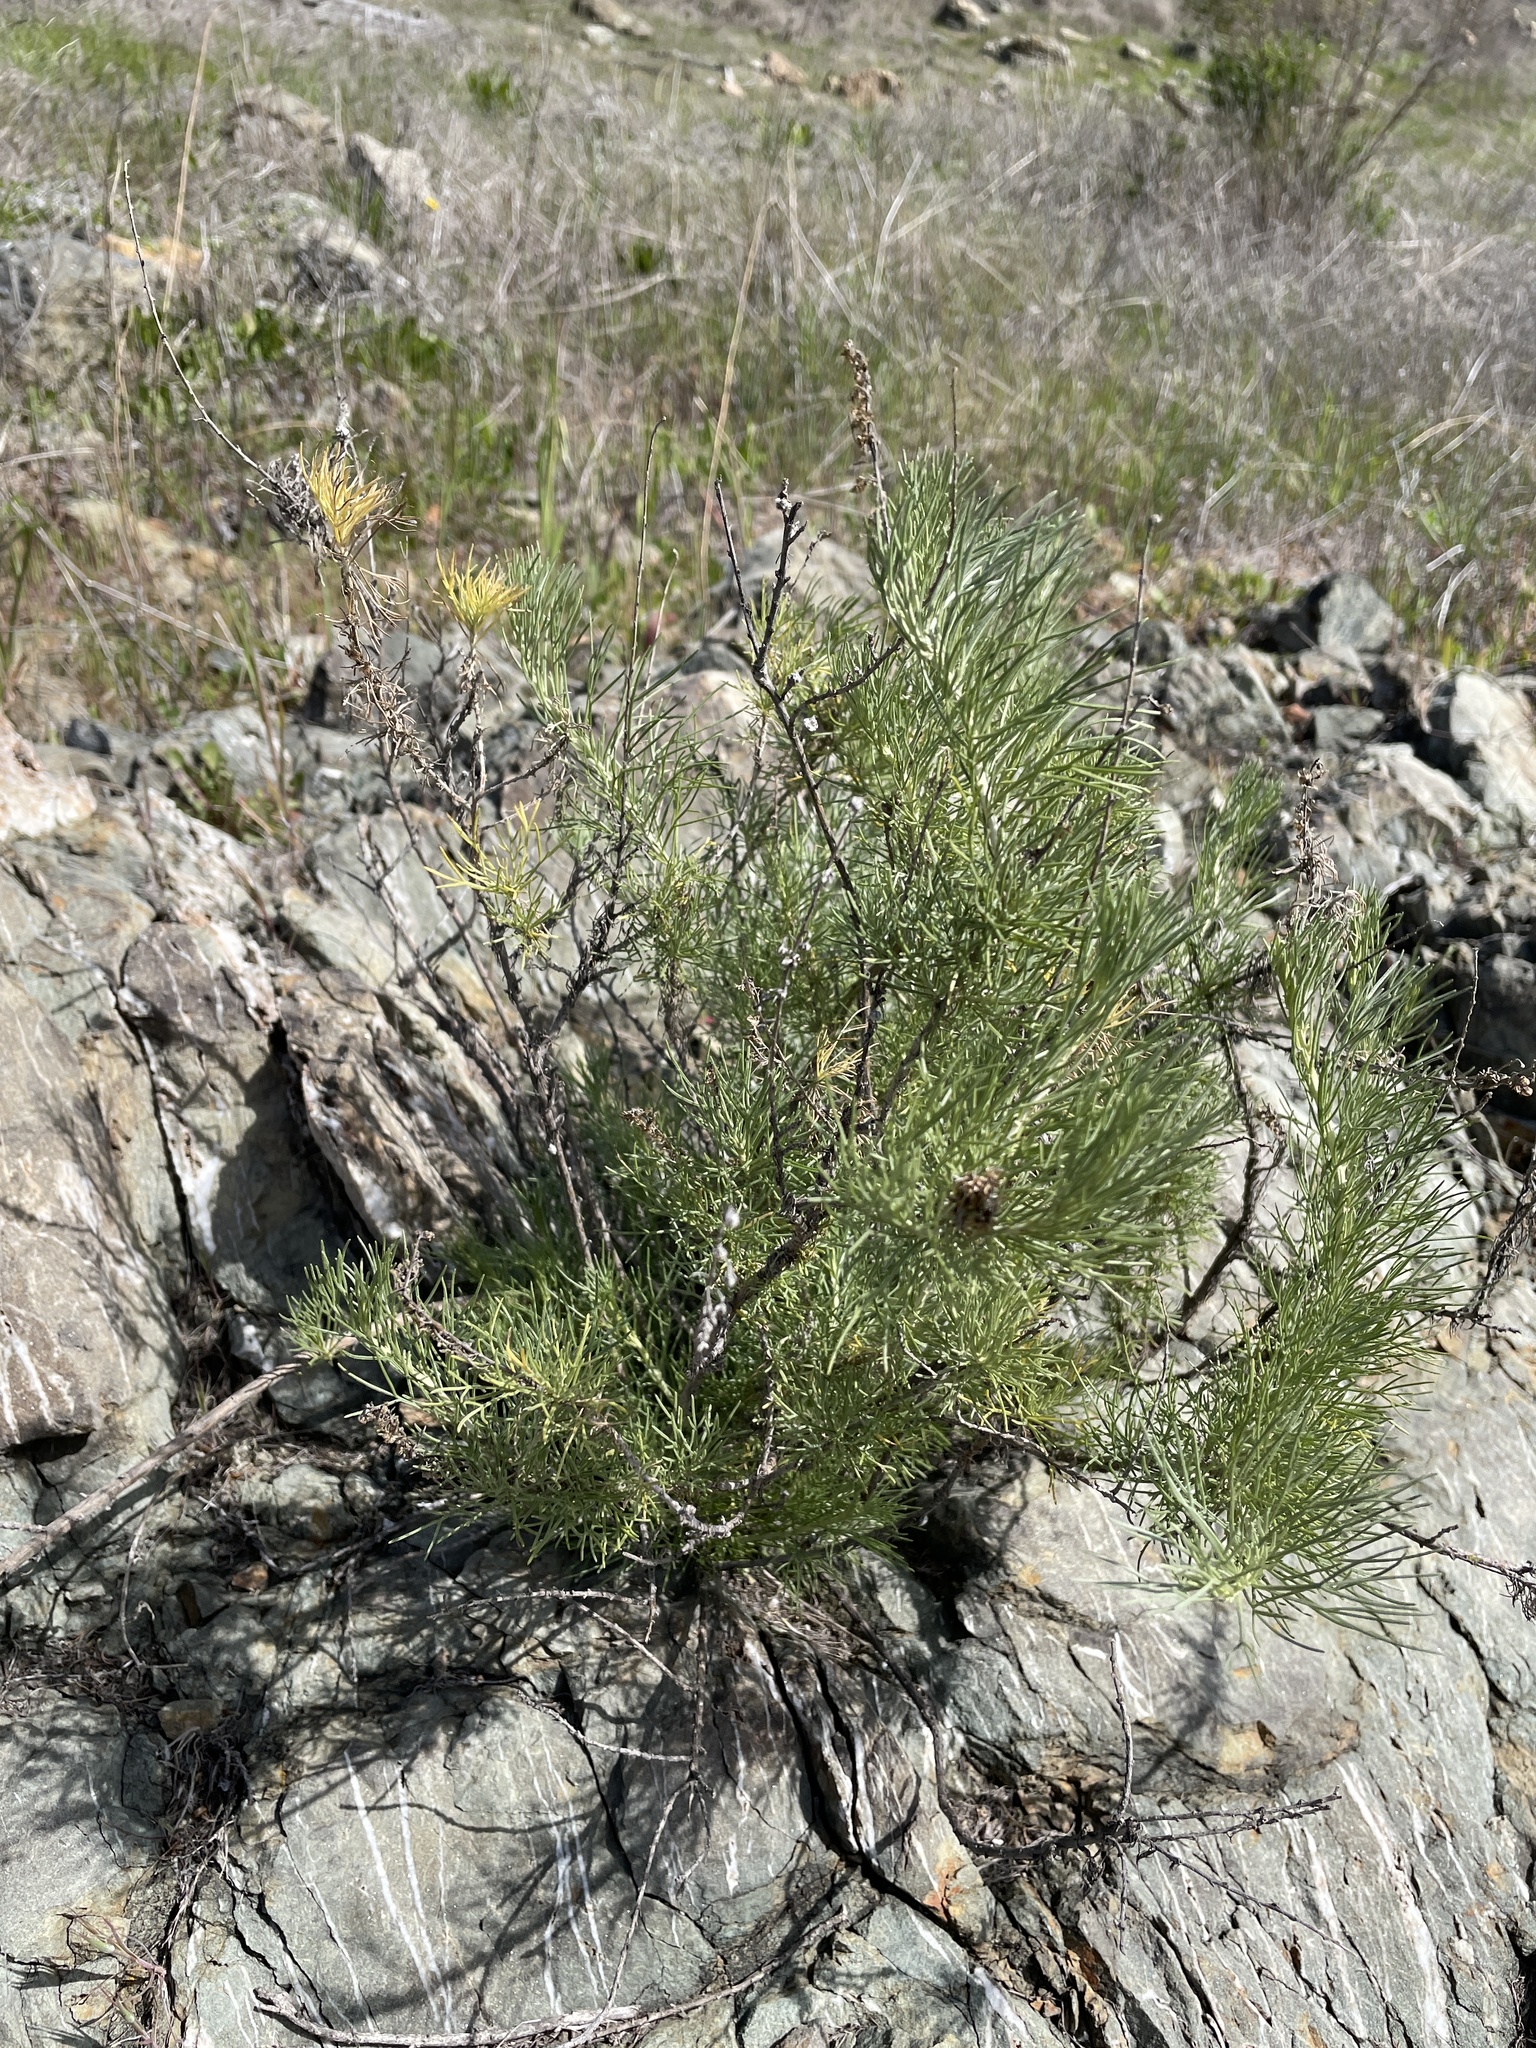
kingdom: Plantae
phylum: Tracheophyta
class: Magnoliopsida
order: Asterales
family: Asteraceae
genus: Artemisia
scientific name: Artemisia californica
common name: California sagebrush
